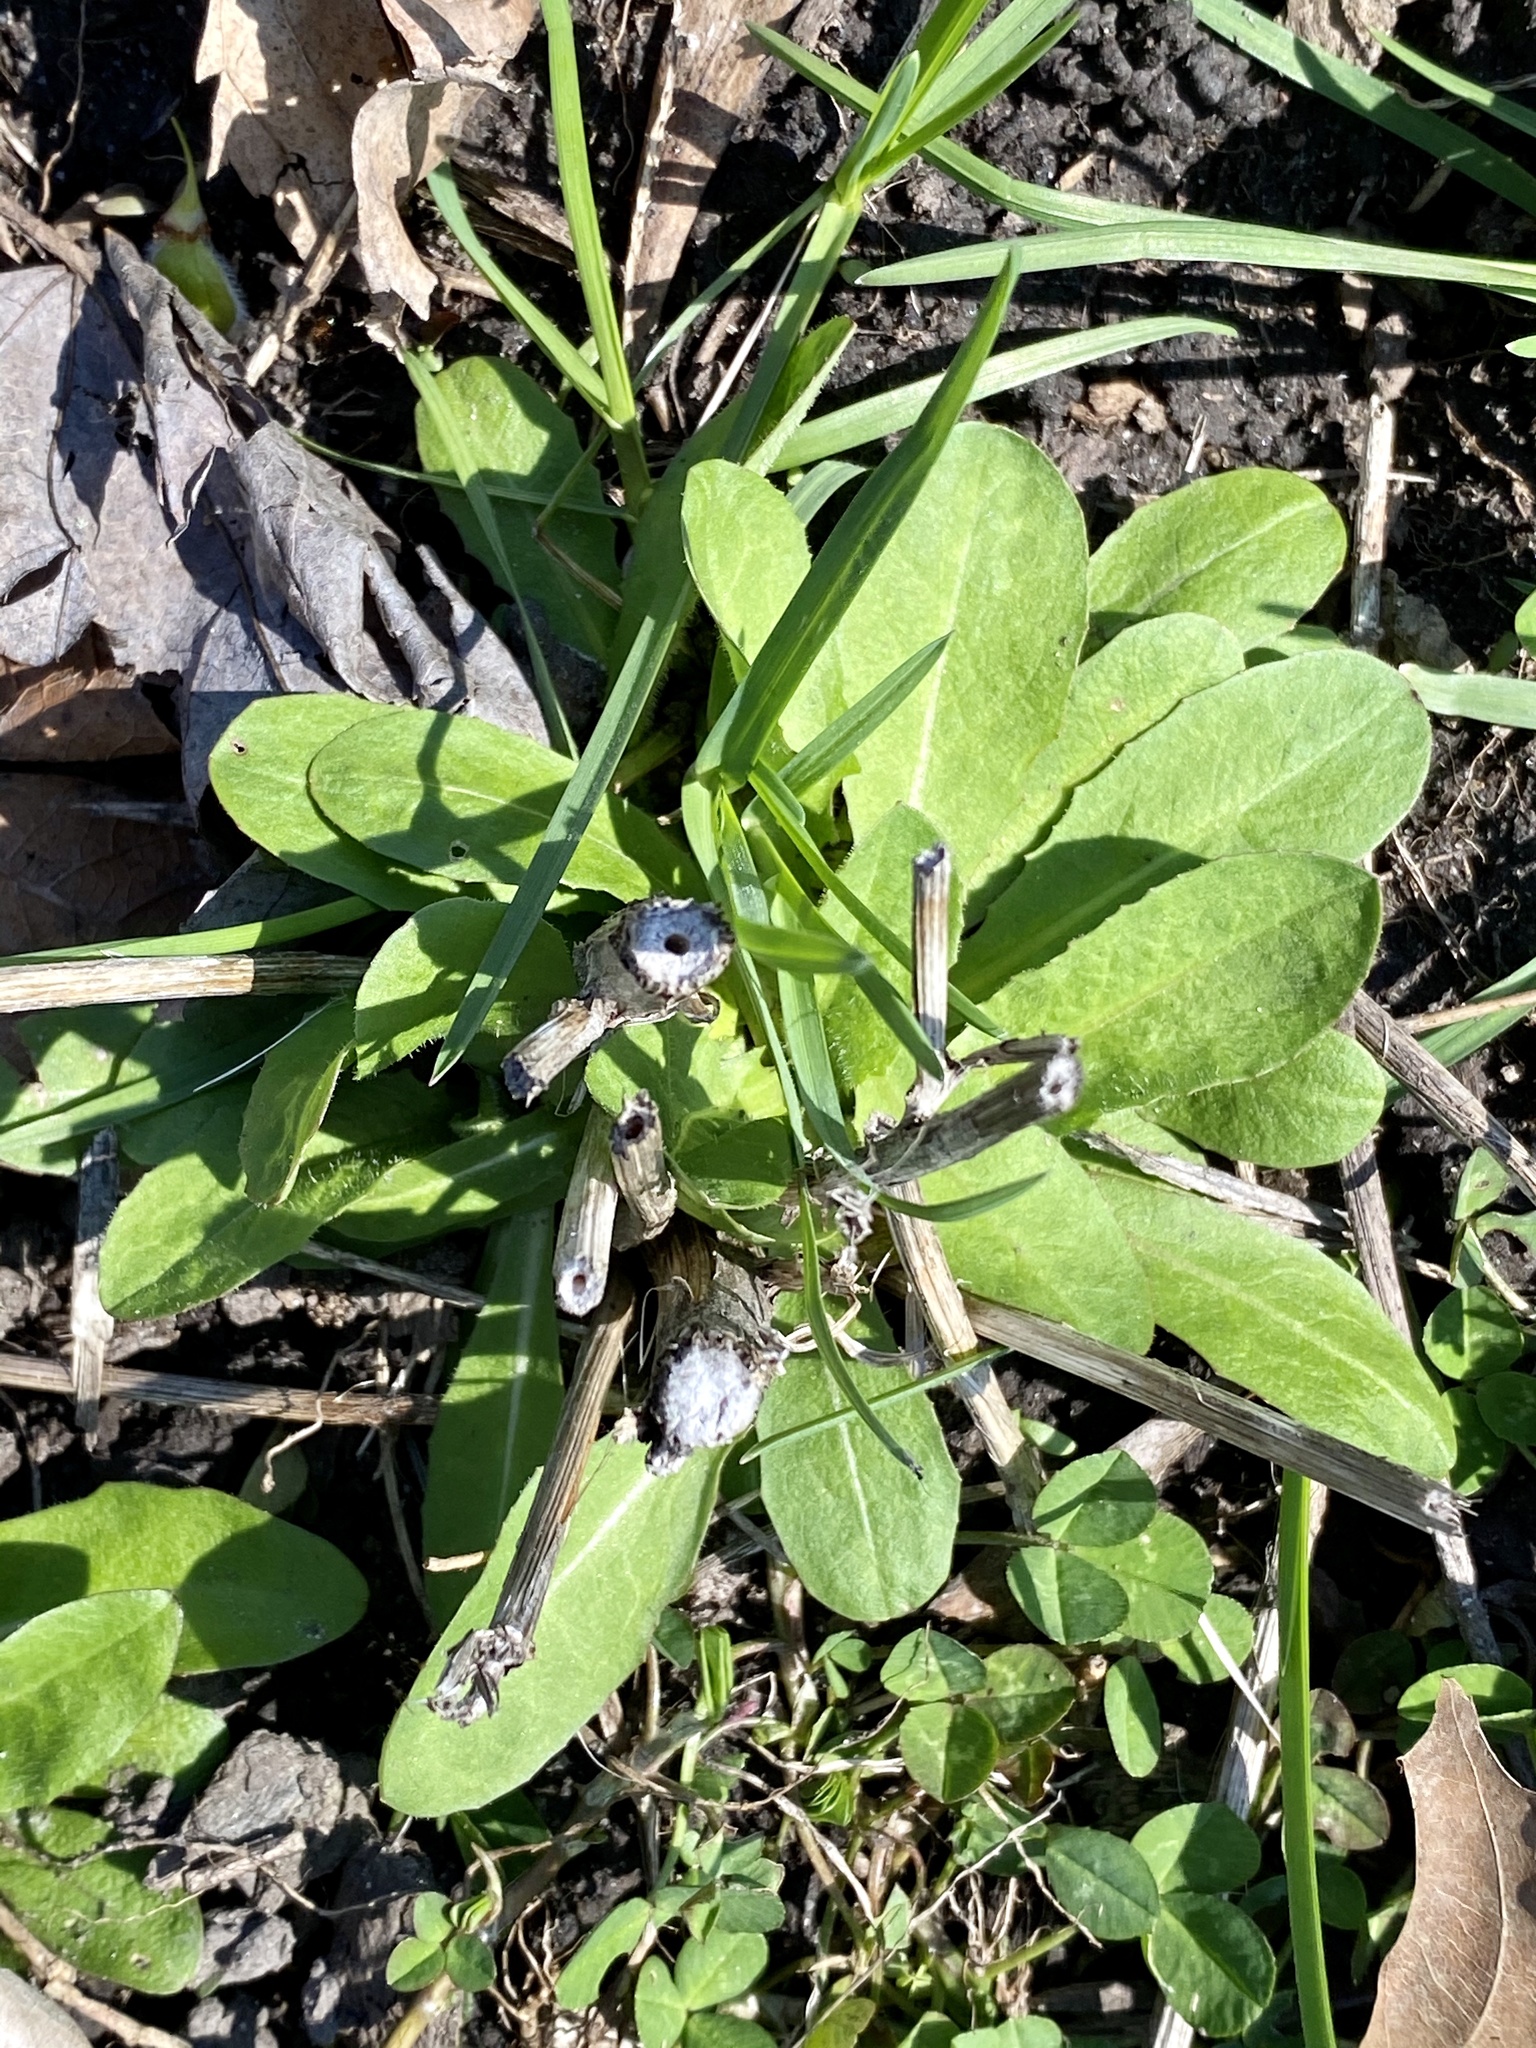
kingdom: Plantae
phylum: Tracheophyta
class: Magnoliopsida
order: Asterales
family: Asteraceae
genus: Cichorium
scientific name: Cichorium intybus
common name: Chicory
